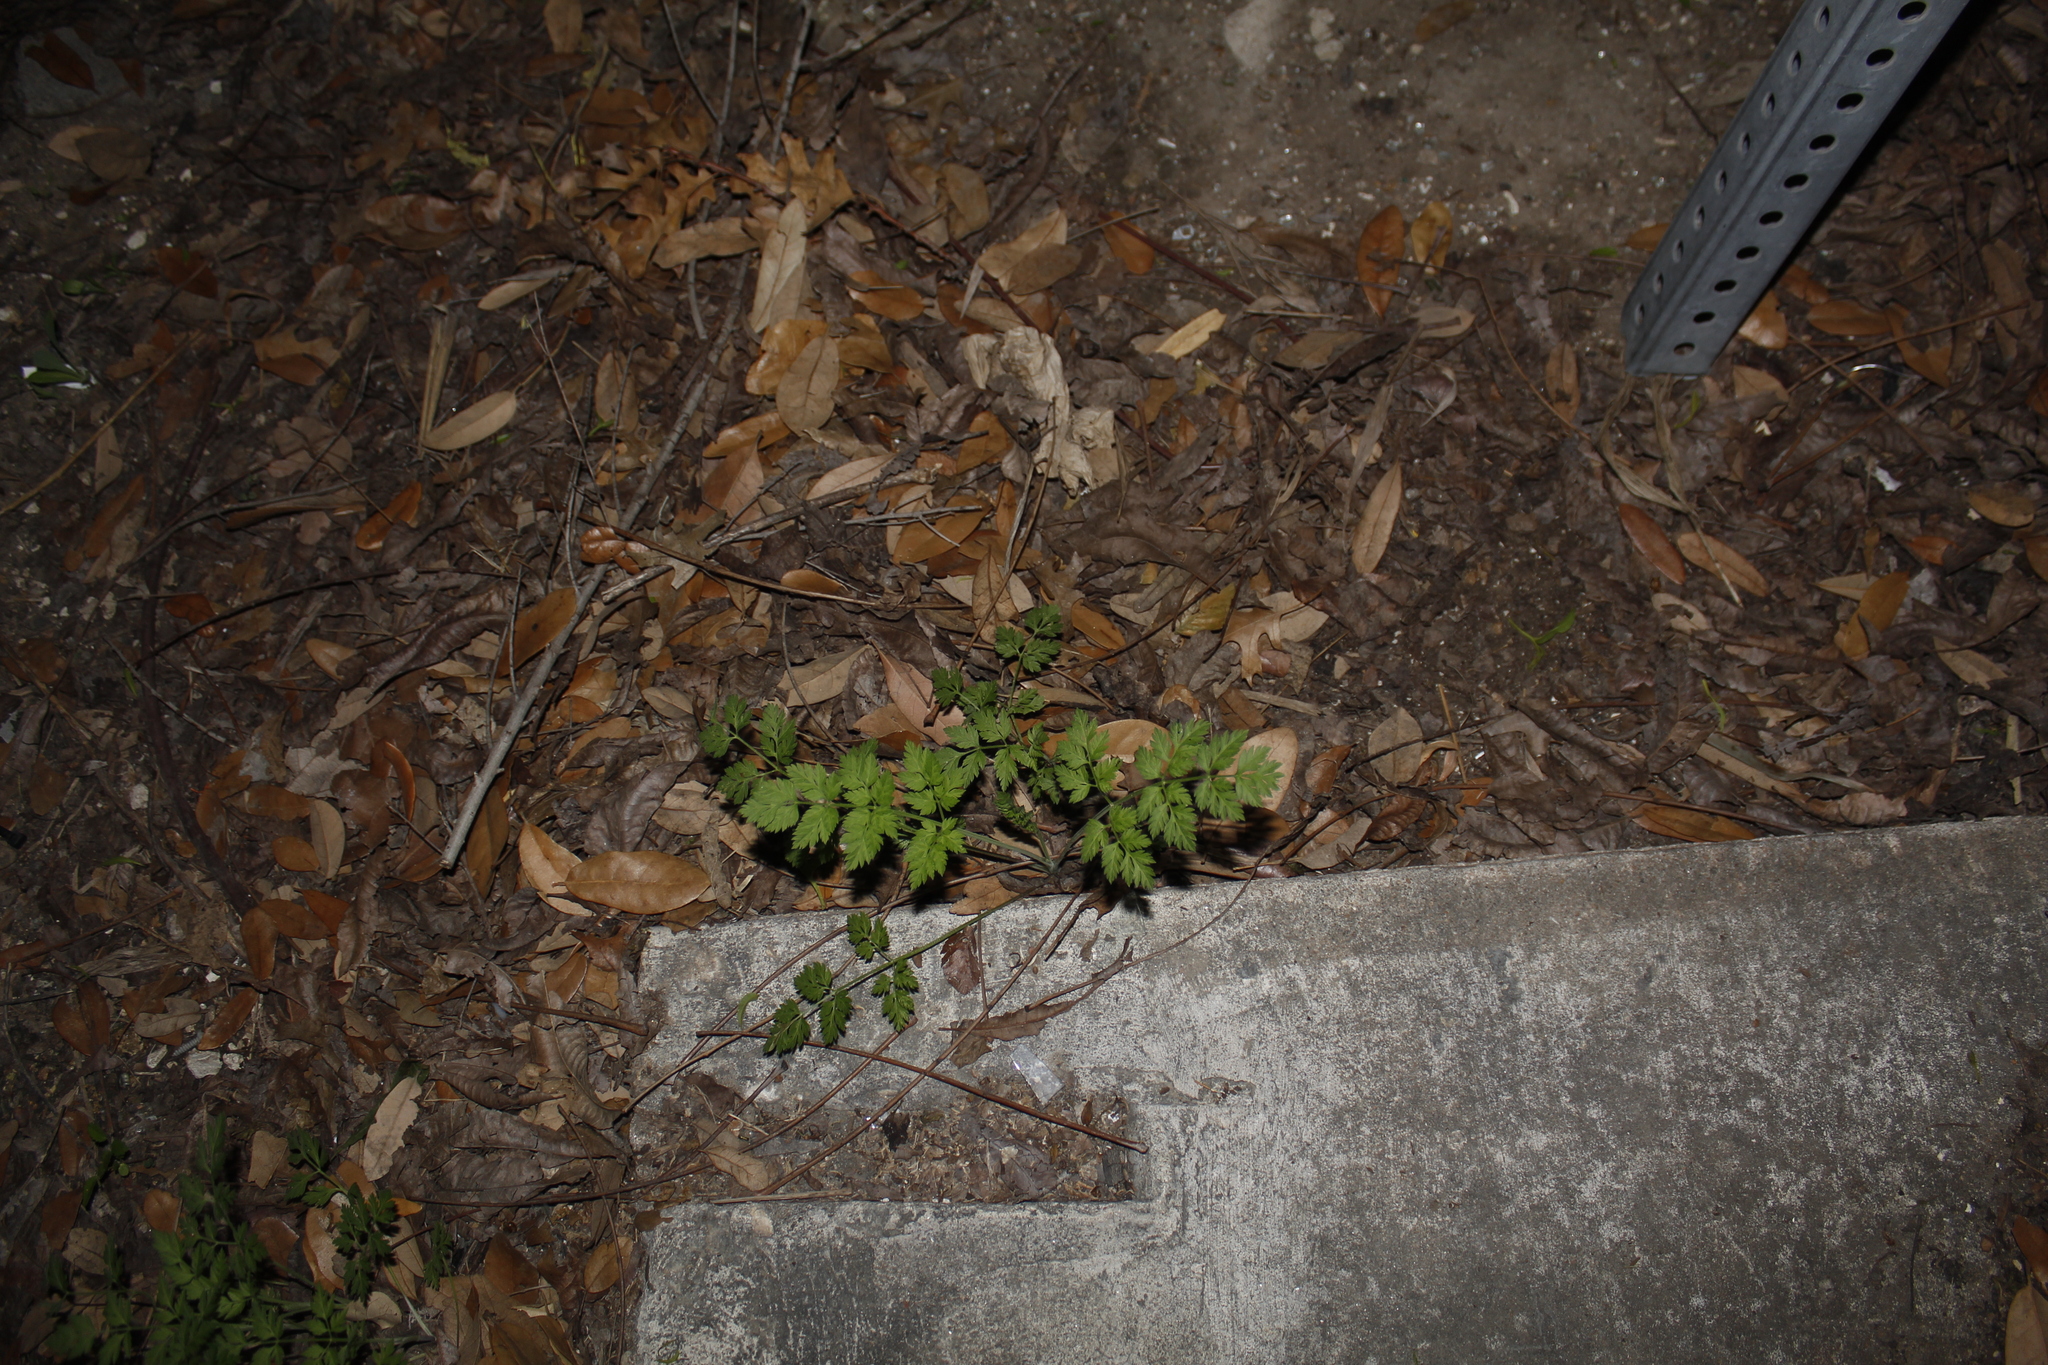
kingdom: Plantae
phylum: Tracheophyta
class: Magnoliopsida
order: Apiales
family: Apiaceae
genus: Torilis
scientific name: Torilis arvensis
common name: Spreading hedge-parsley
